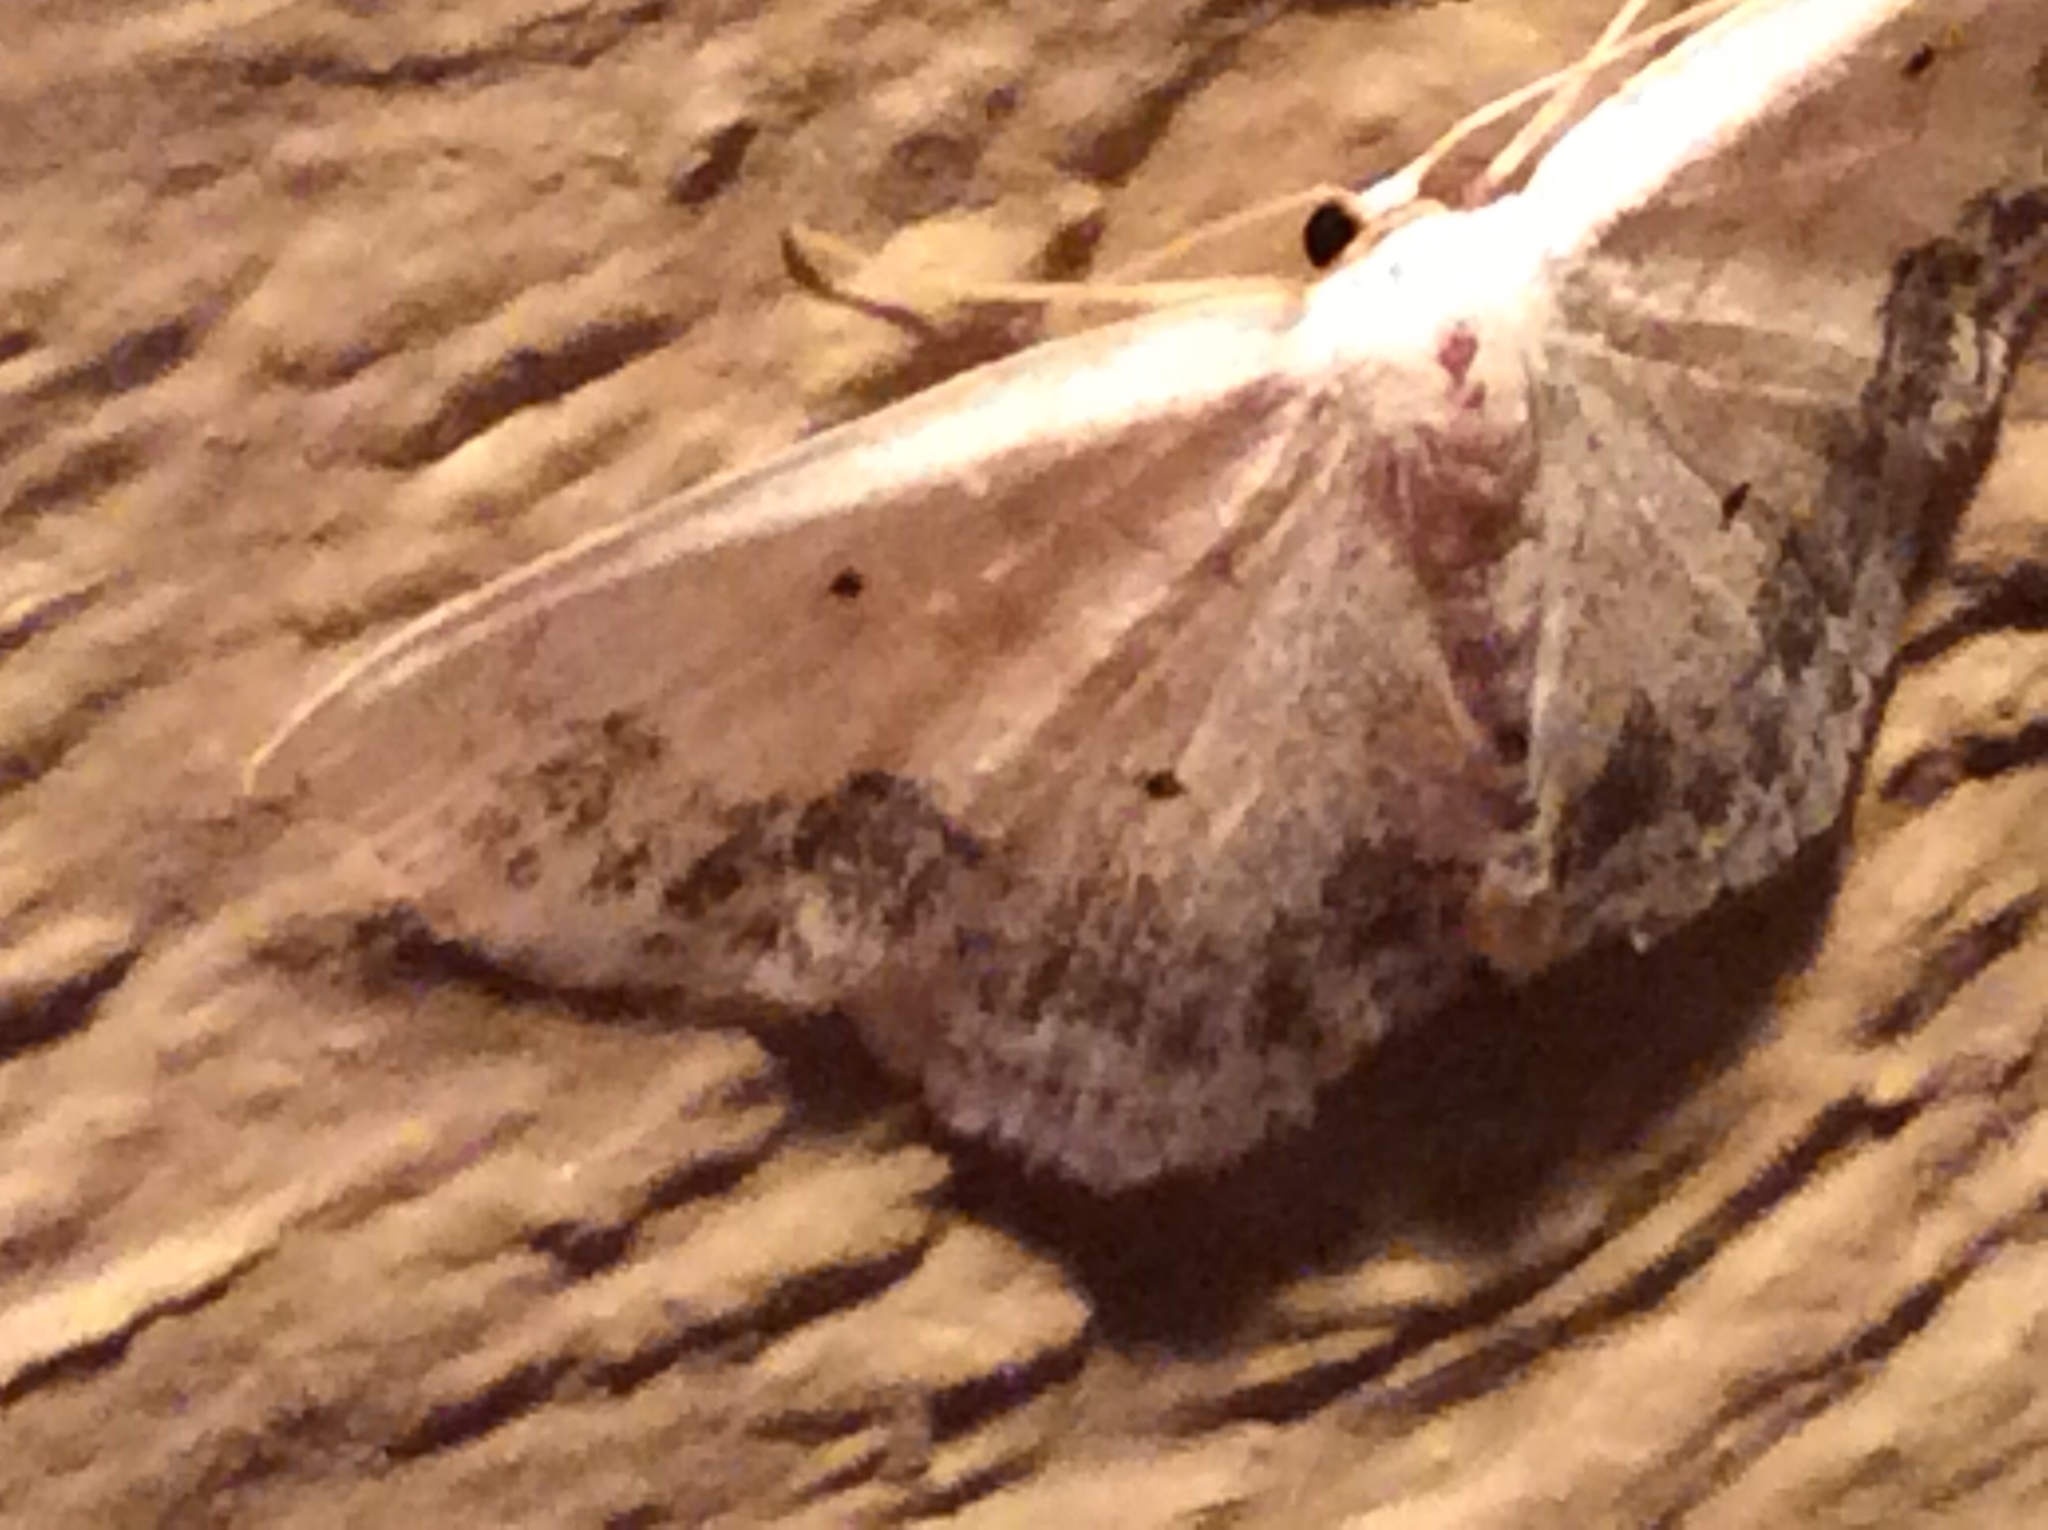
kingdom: Animalia
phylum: Arthropoda
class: Insecta
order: Lepidoptera
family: Geometridae
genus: Scopula
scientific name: Scopula limboundata
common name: Large lace border
